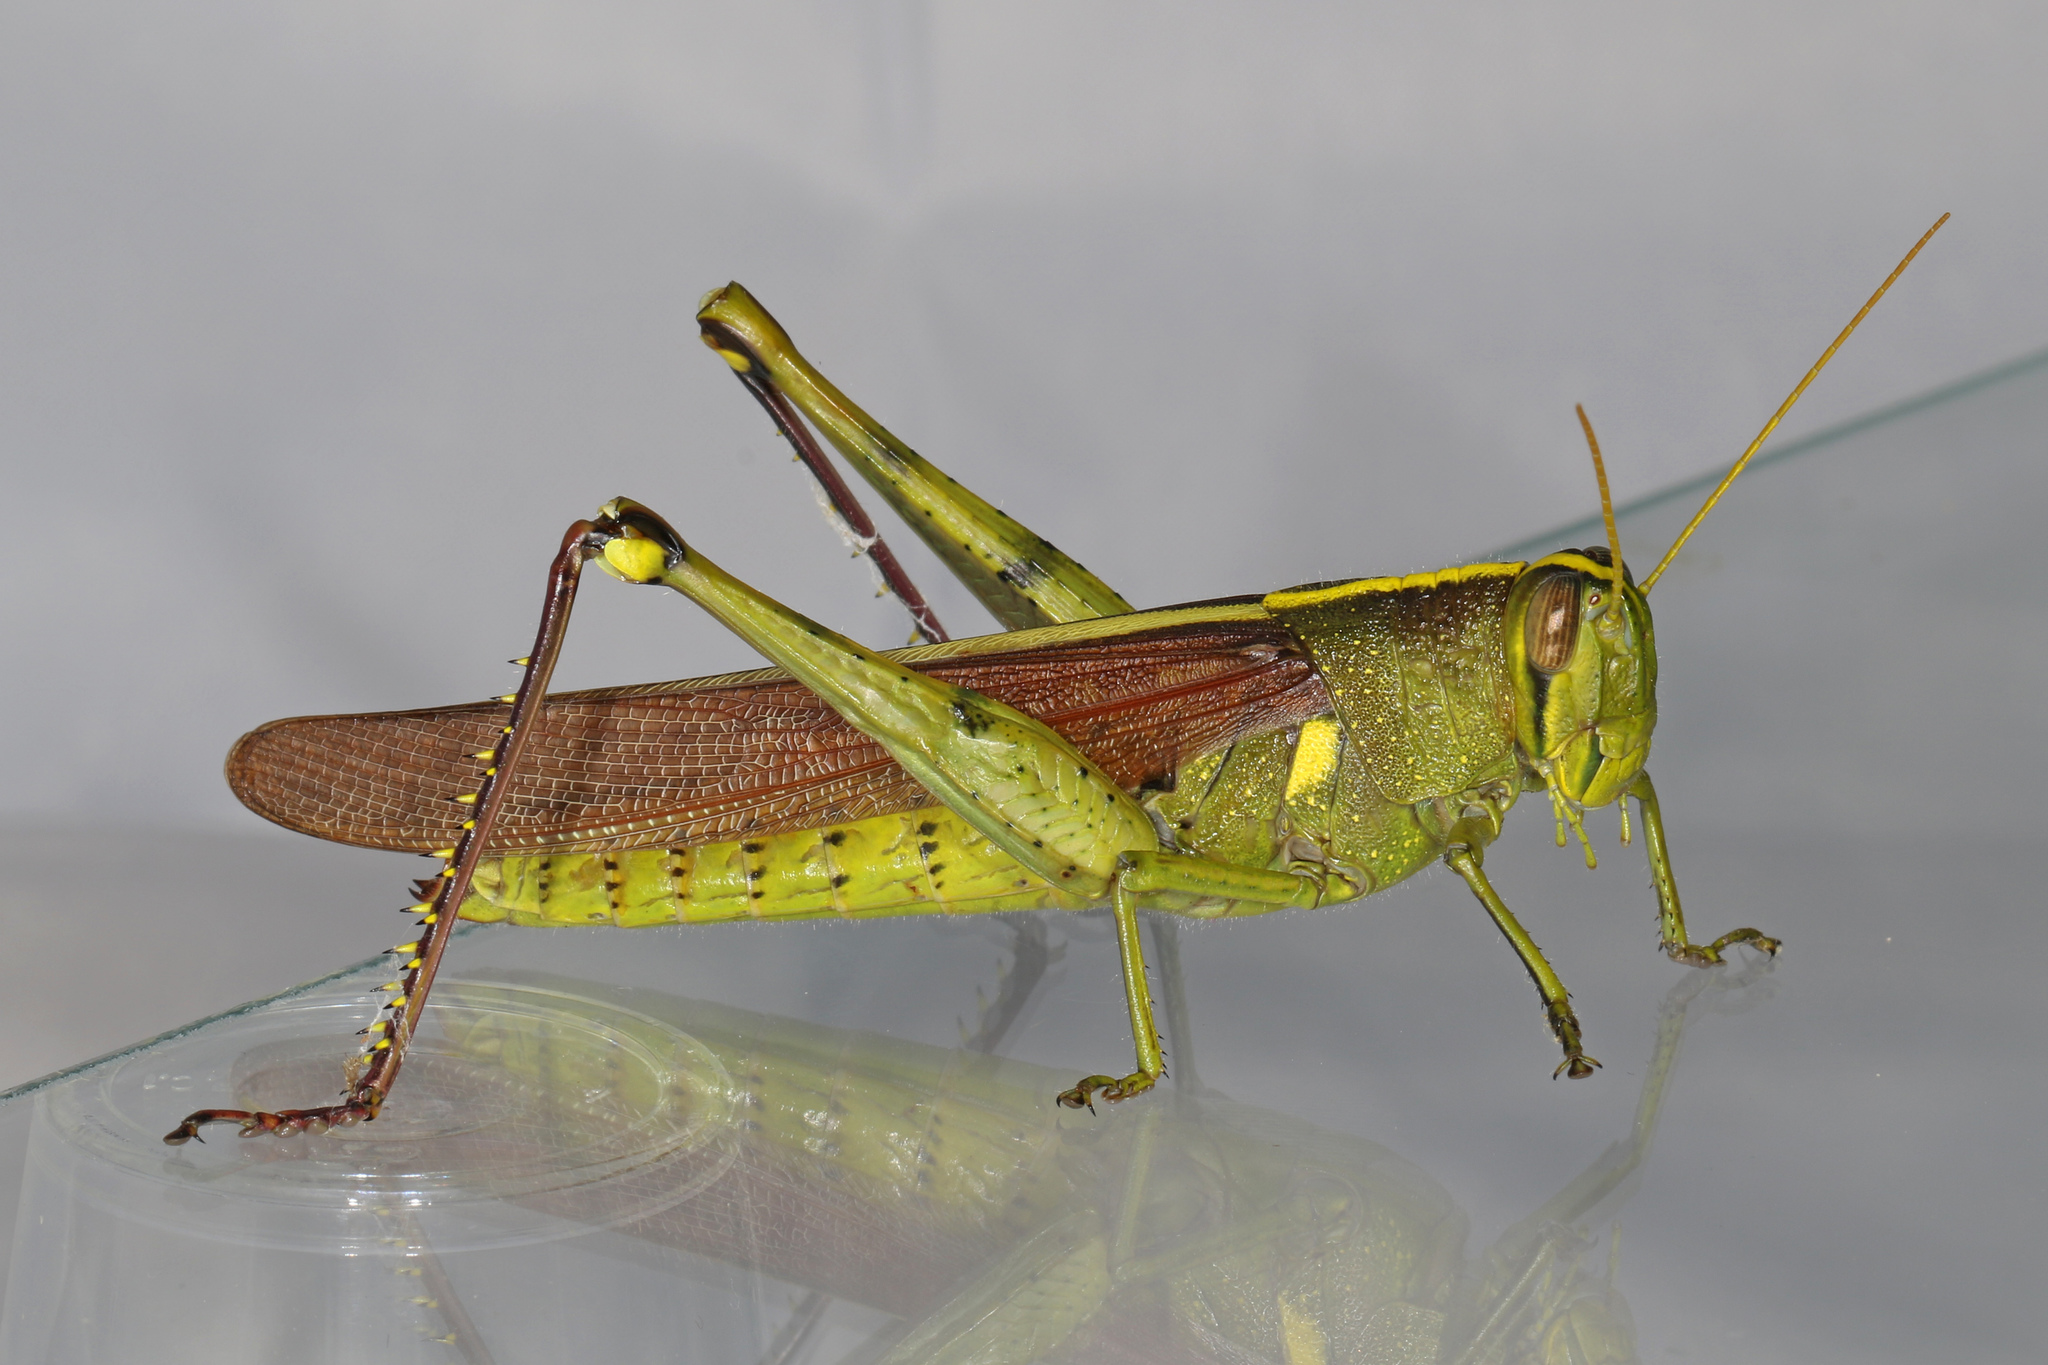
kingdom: Animalia
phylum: Arthropoda
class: Insecta
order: Orthoptera
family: Acrididae
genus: Schistocerca
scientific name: Schistocerca obscura
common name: Obscure bird grasshopper
